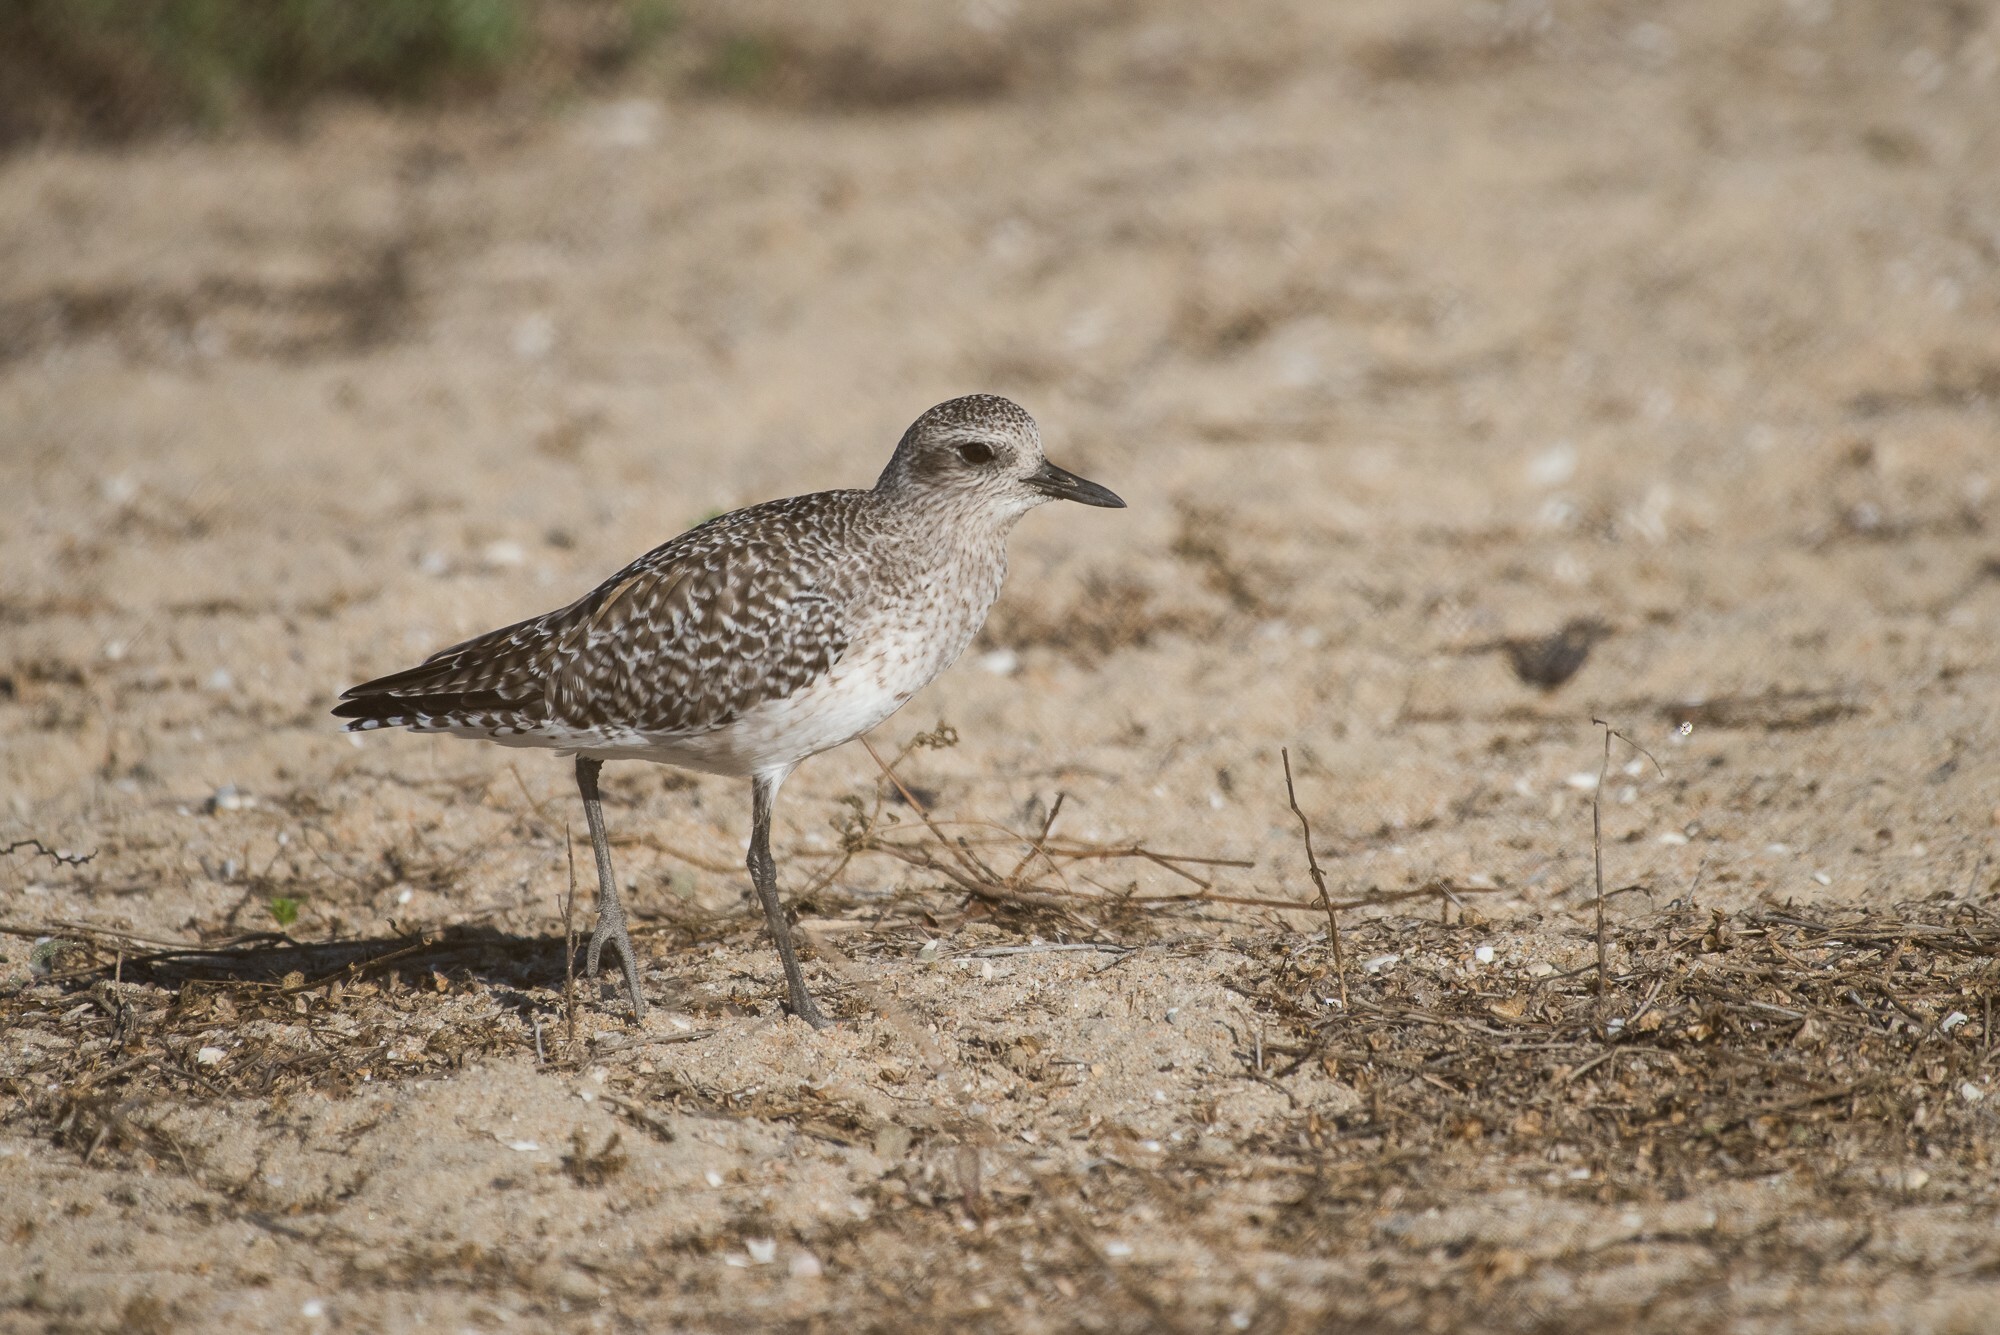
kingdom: Animalia
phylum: Chordata
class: Aves
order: Charadriiformes
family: Charadriidae
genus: Pluvialis
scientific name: Pluvialis squatarola
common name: Grey plover
